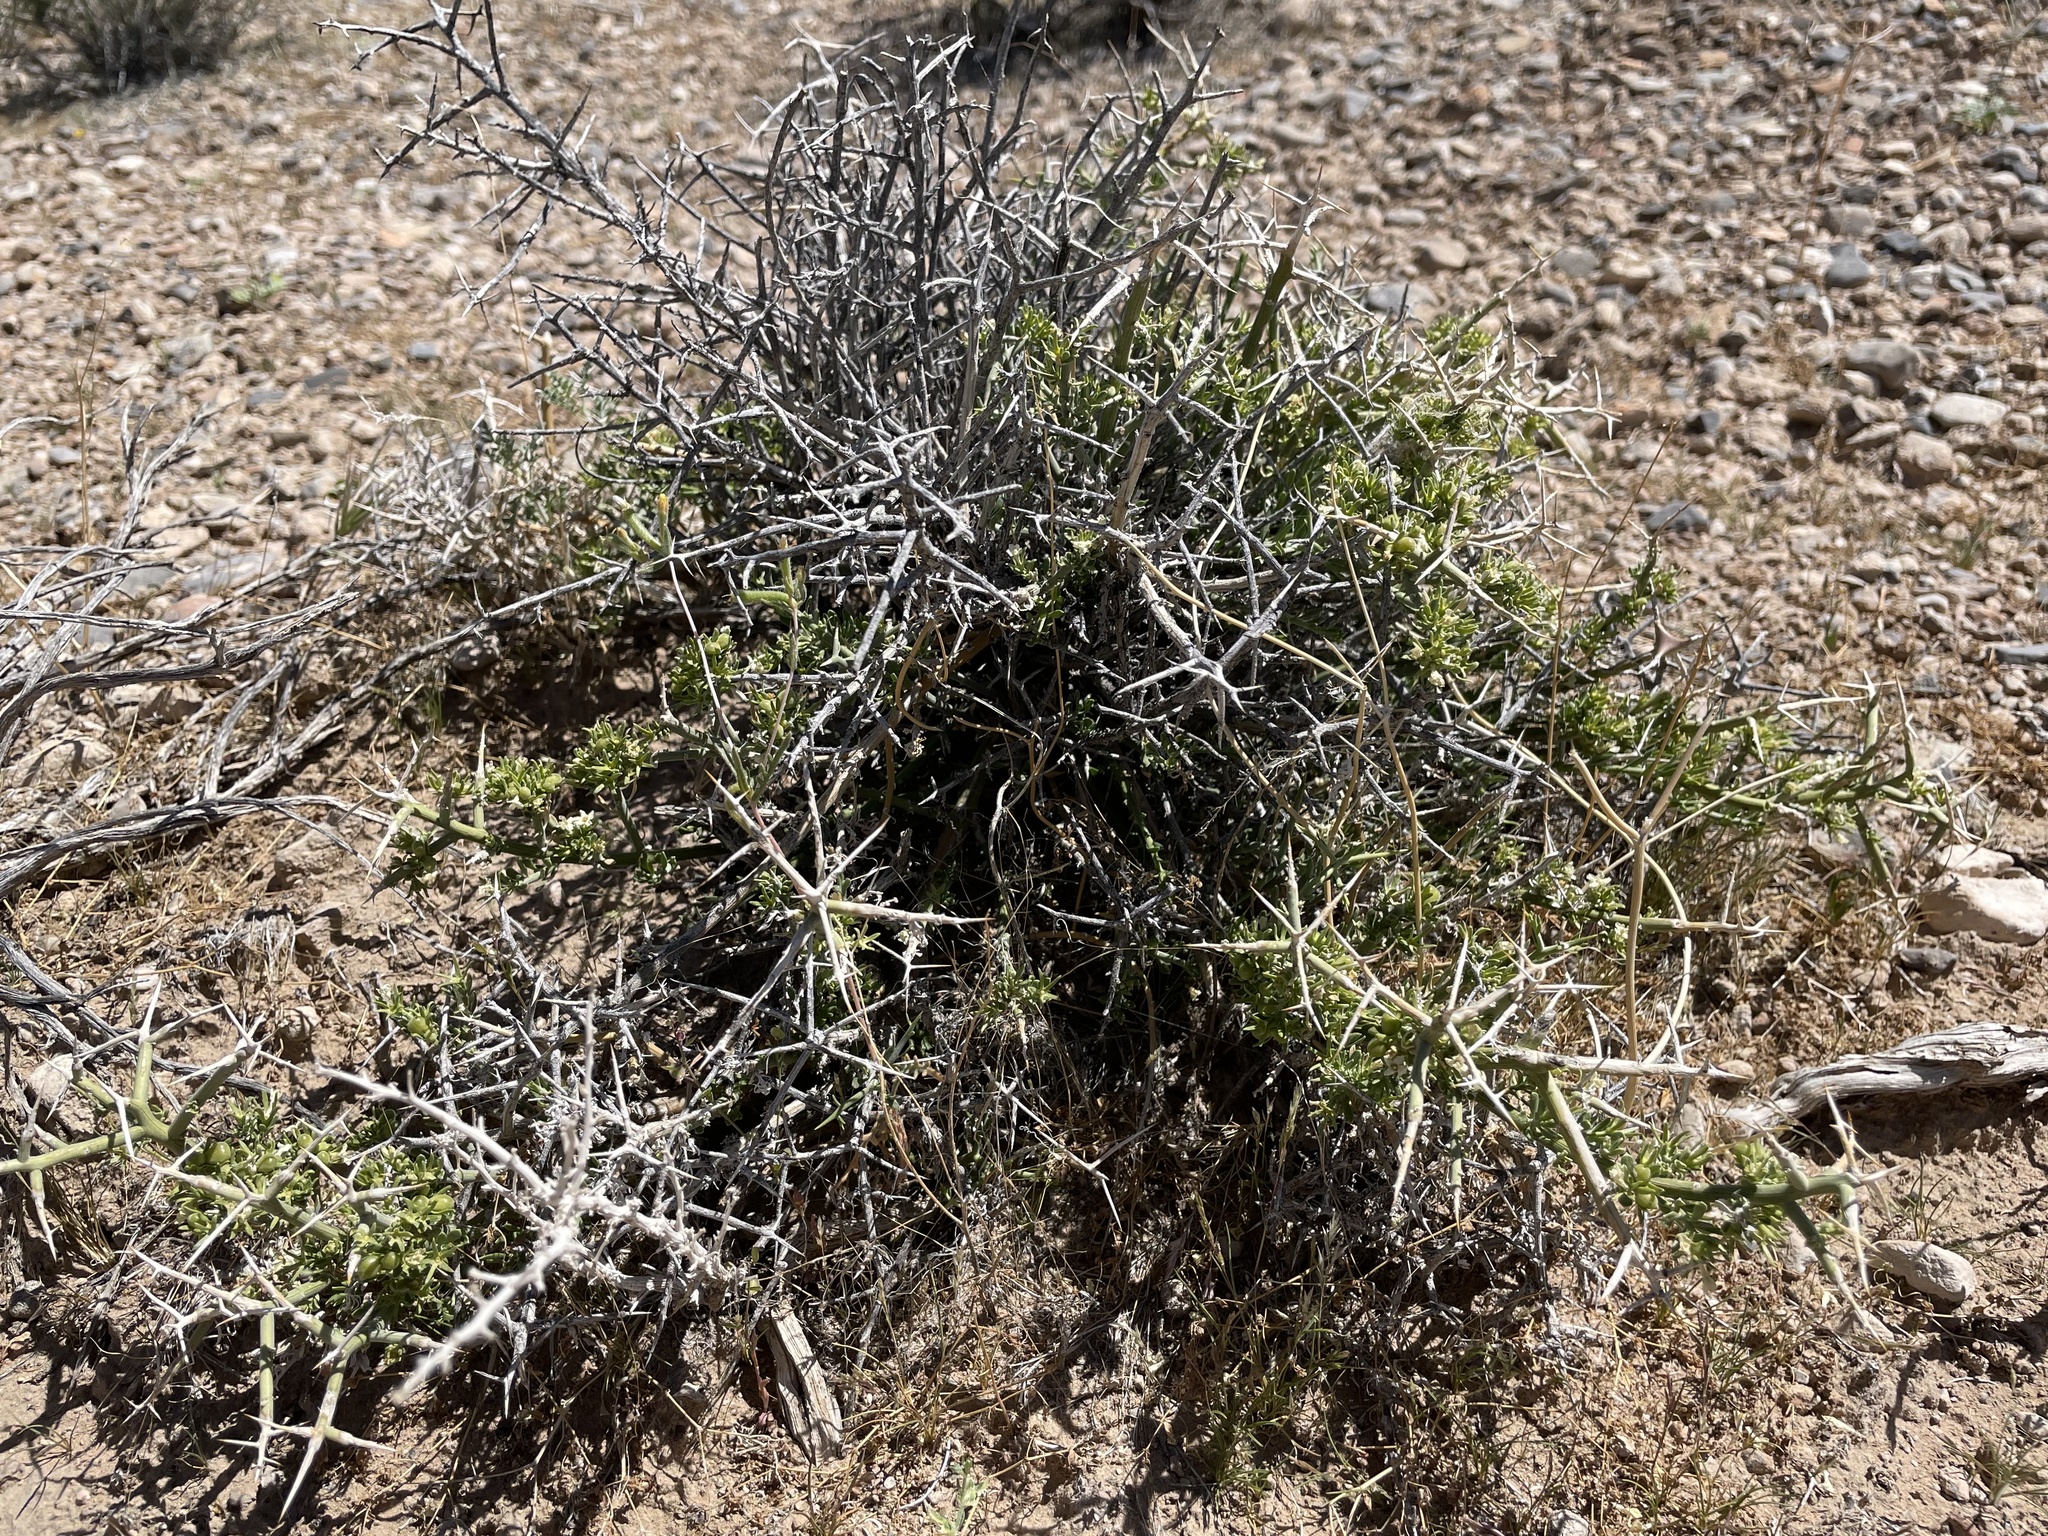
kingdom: Plantae
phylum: Tracheophyta
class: Magnoliopsida
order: Lamiales
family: Oleaceae
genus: Menodora
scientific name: Menodora spinescens
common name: Spiny menodora
